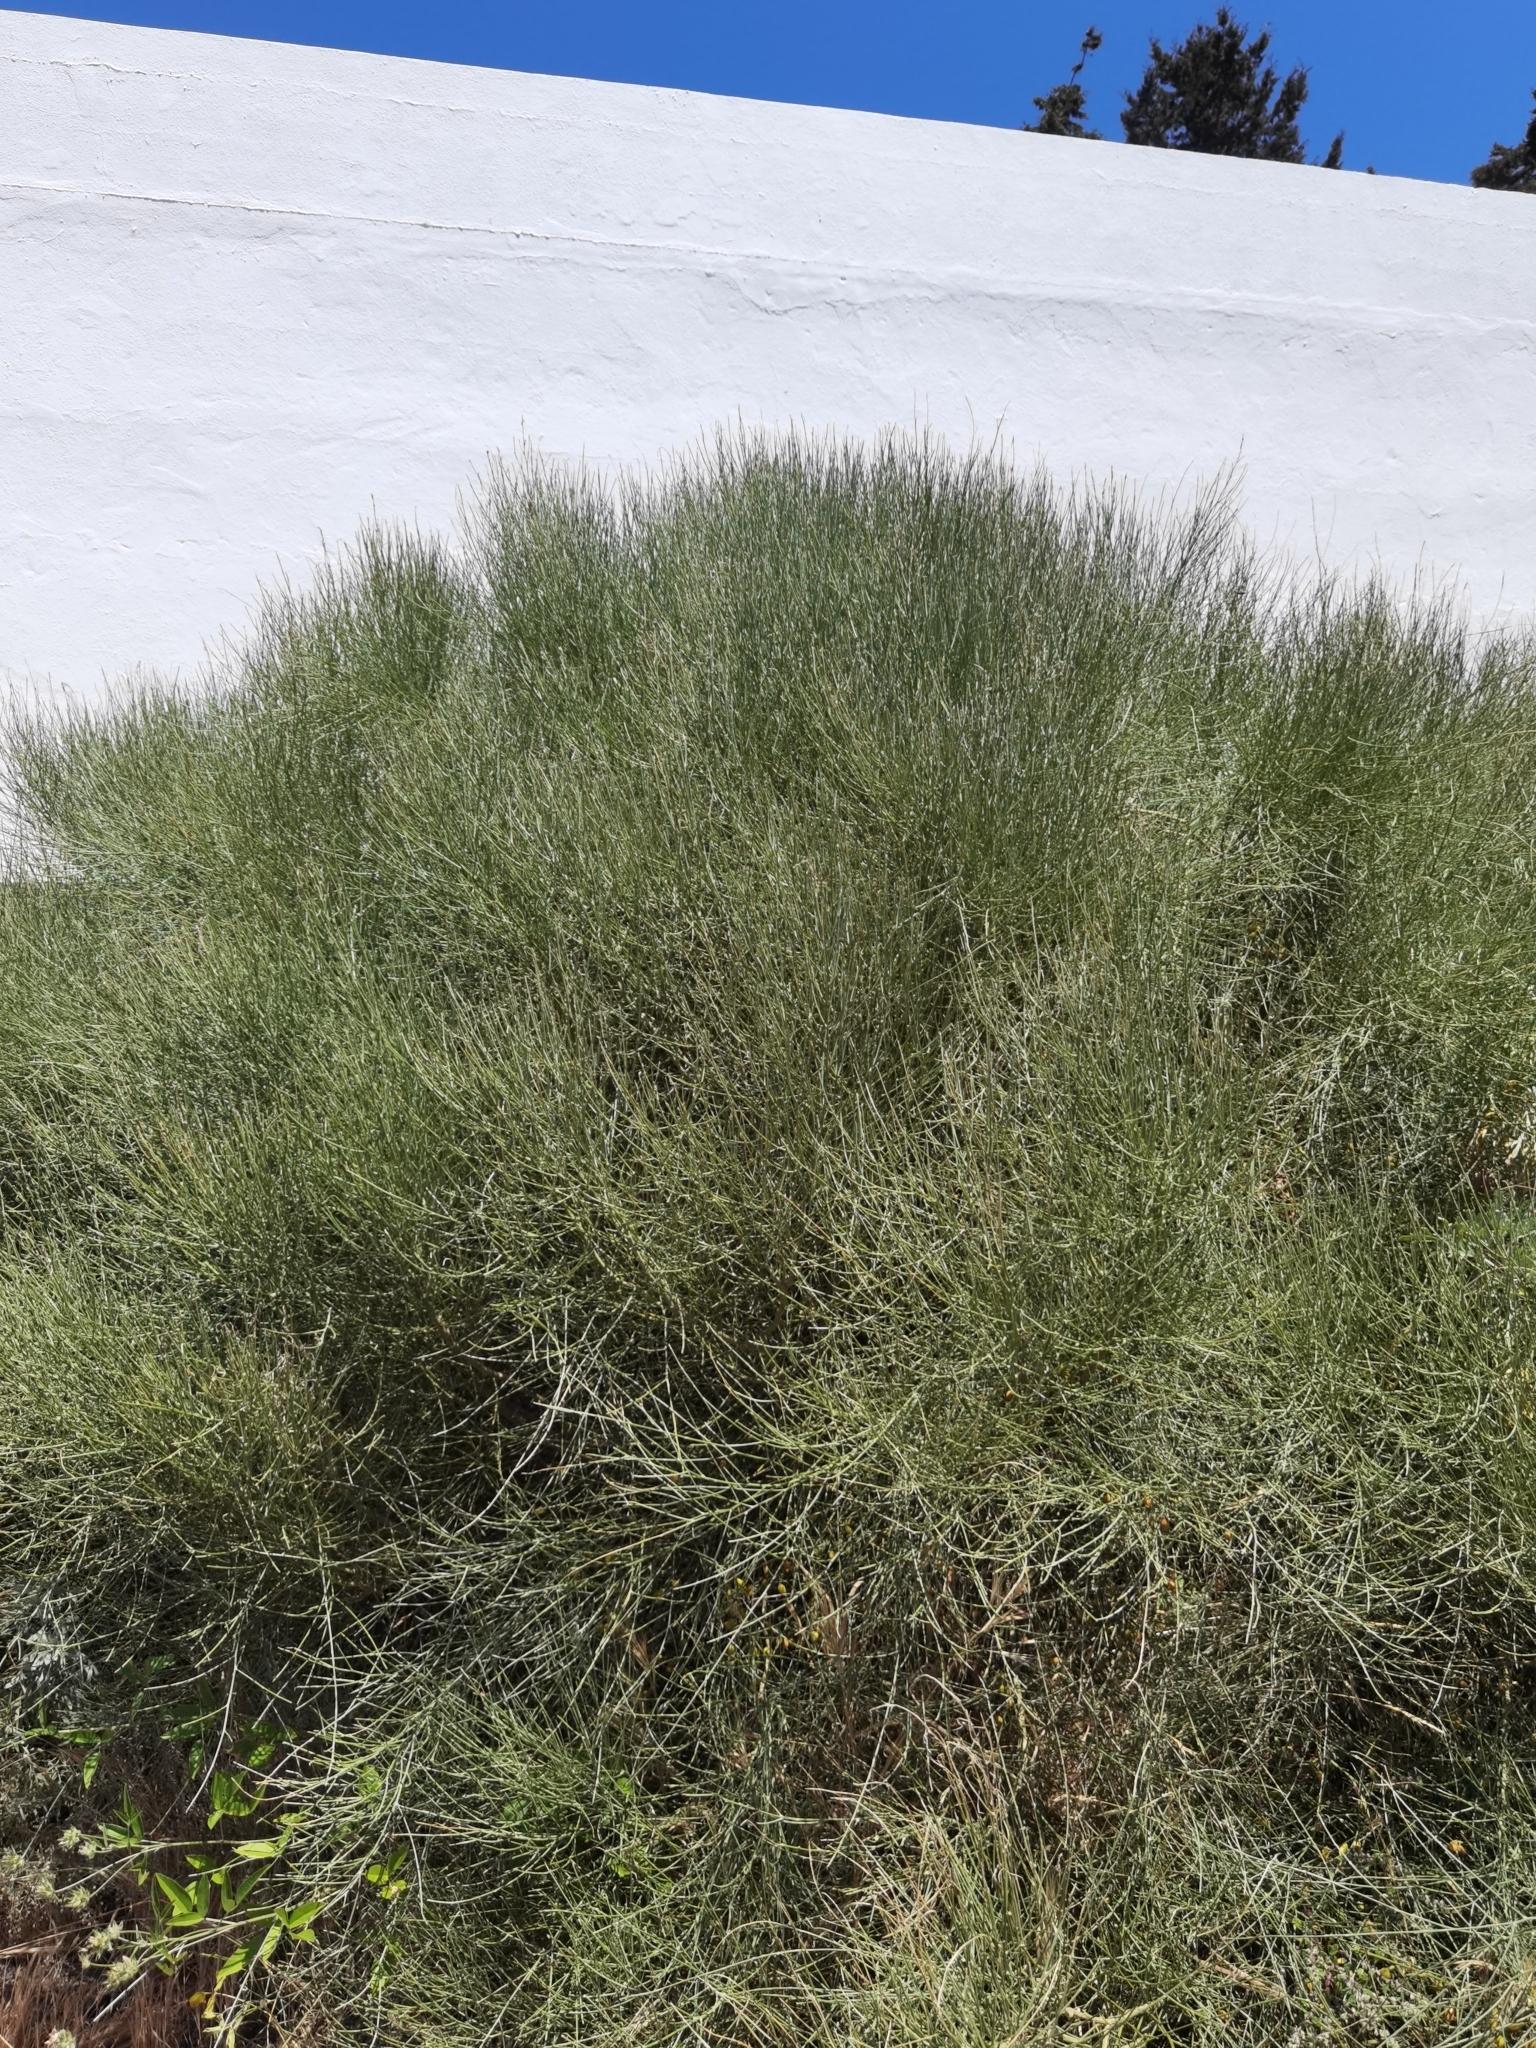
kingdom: Plantae
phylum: Tracheophyta
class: Magnoliopsida
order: Fabales
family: Fabaceae
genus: Retama
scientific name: Retama rhodorhizoides
